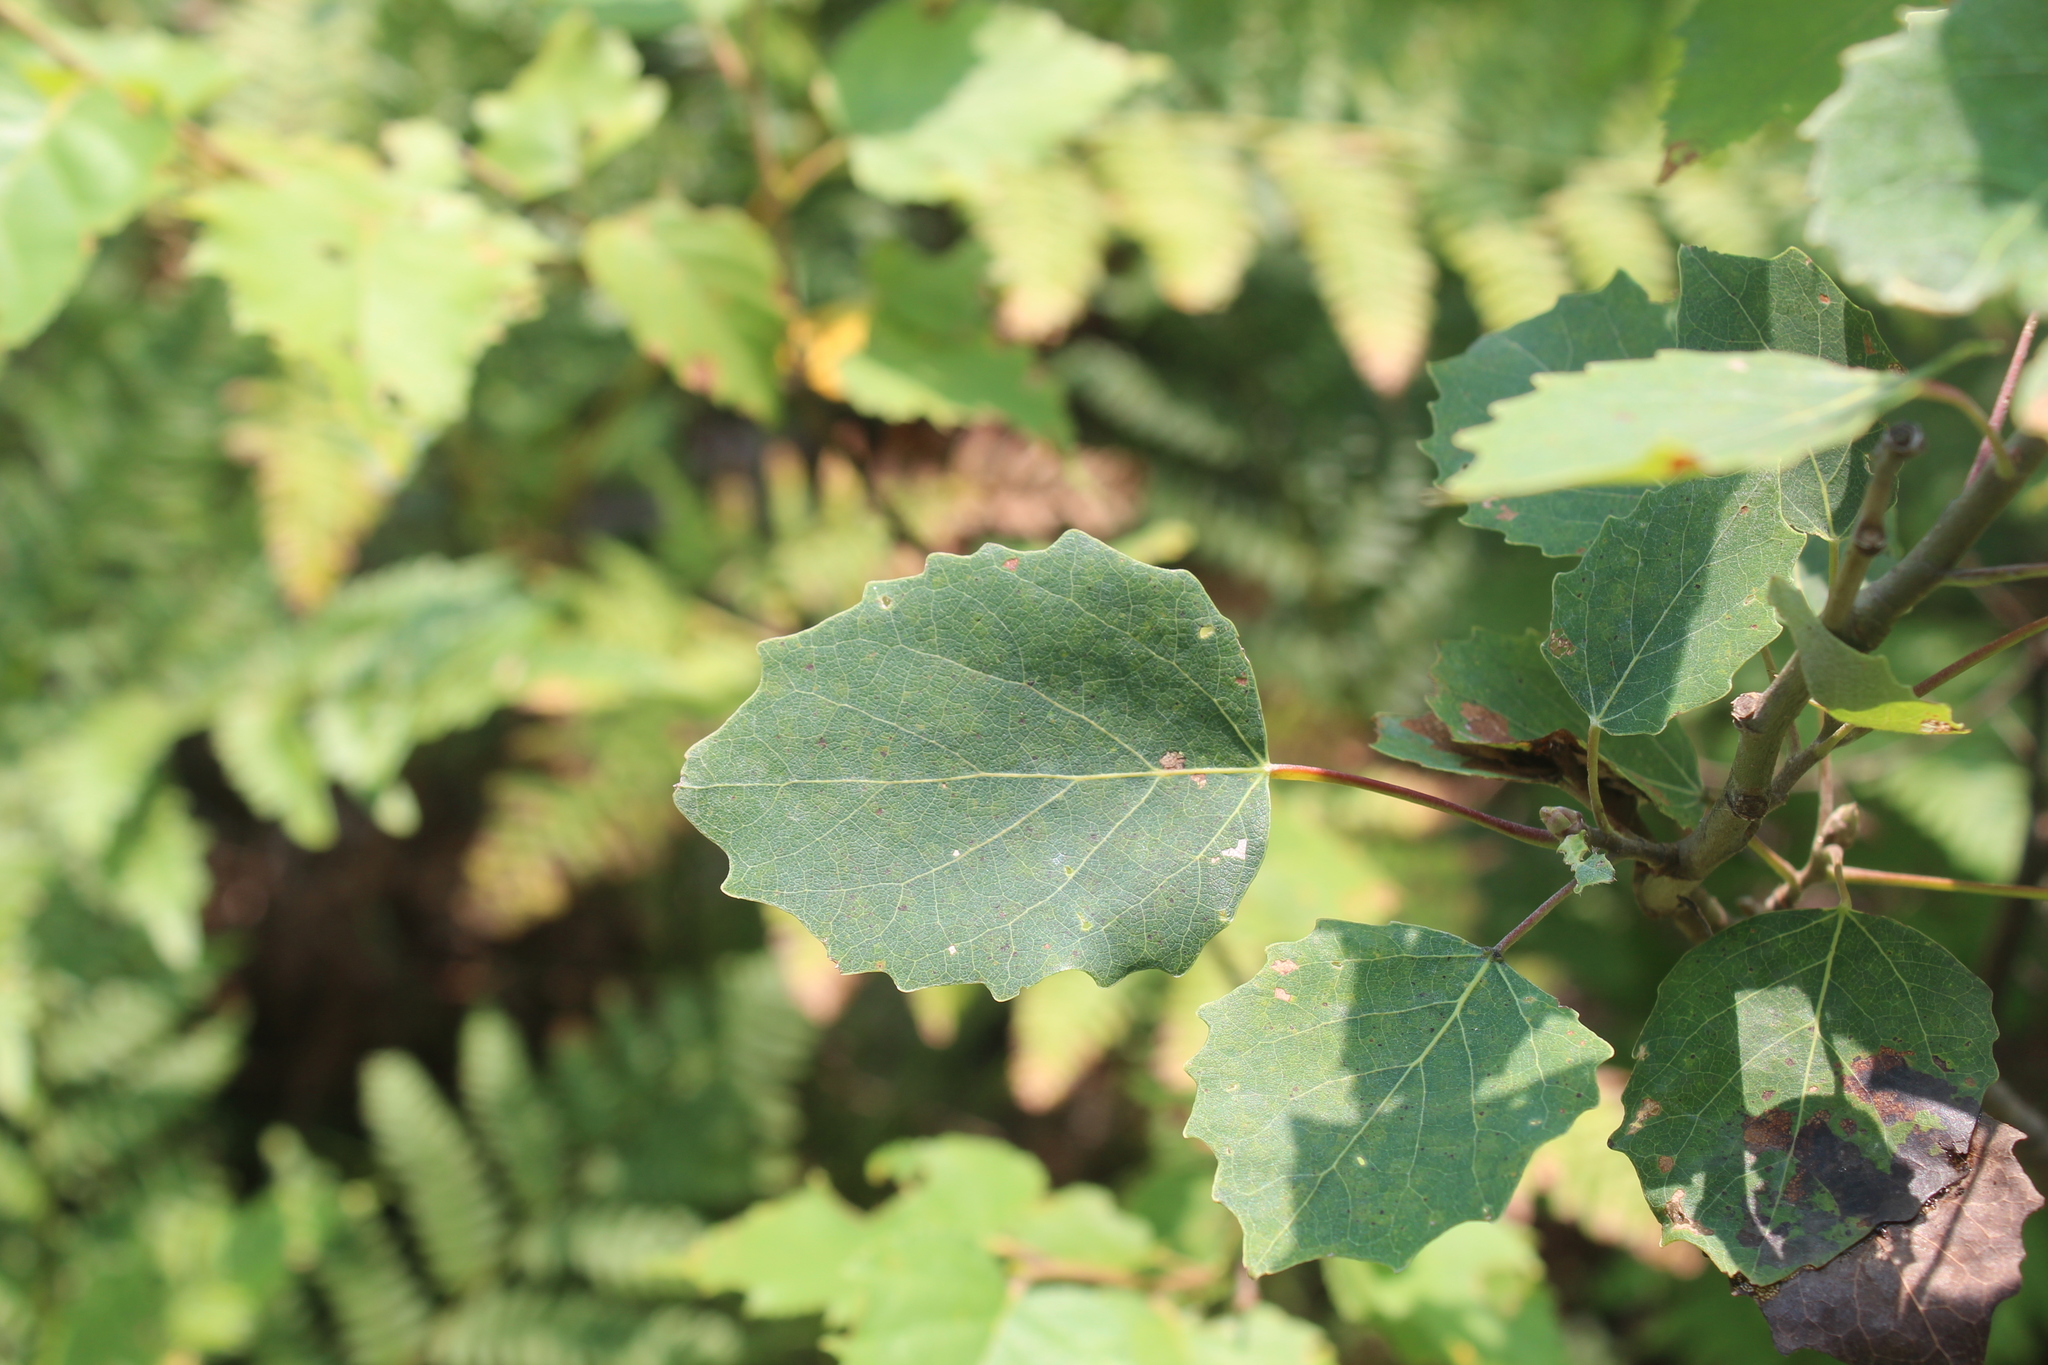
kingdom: Plantae
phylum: Tracheophyta
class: Magnoliopsida
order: Malpighiales
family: Salicaceae
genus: Populus
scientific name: Populus grandidentata
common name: Bigtooth aspen
